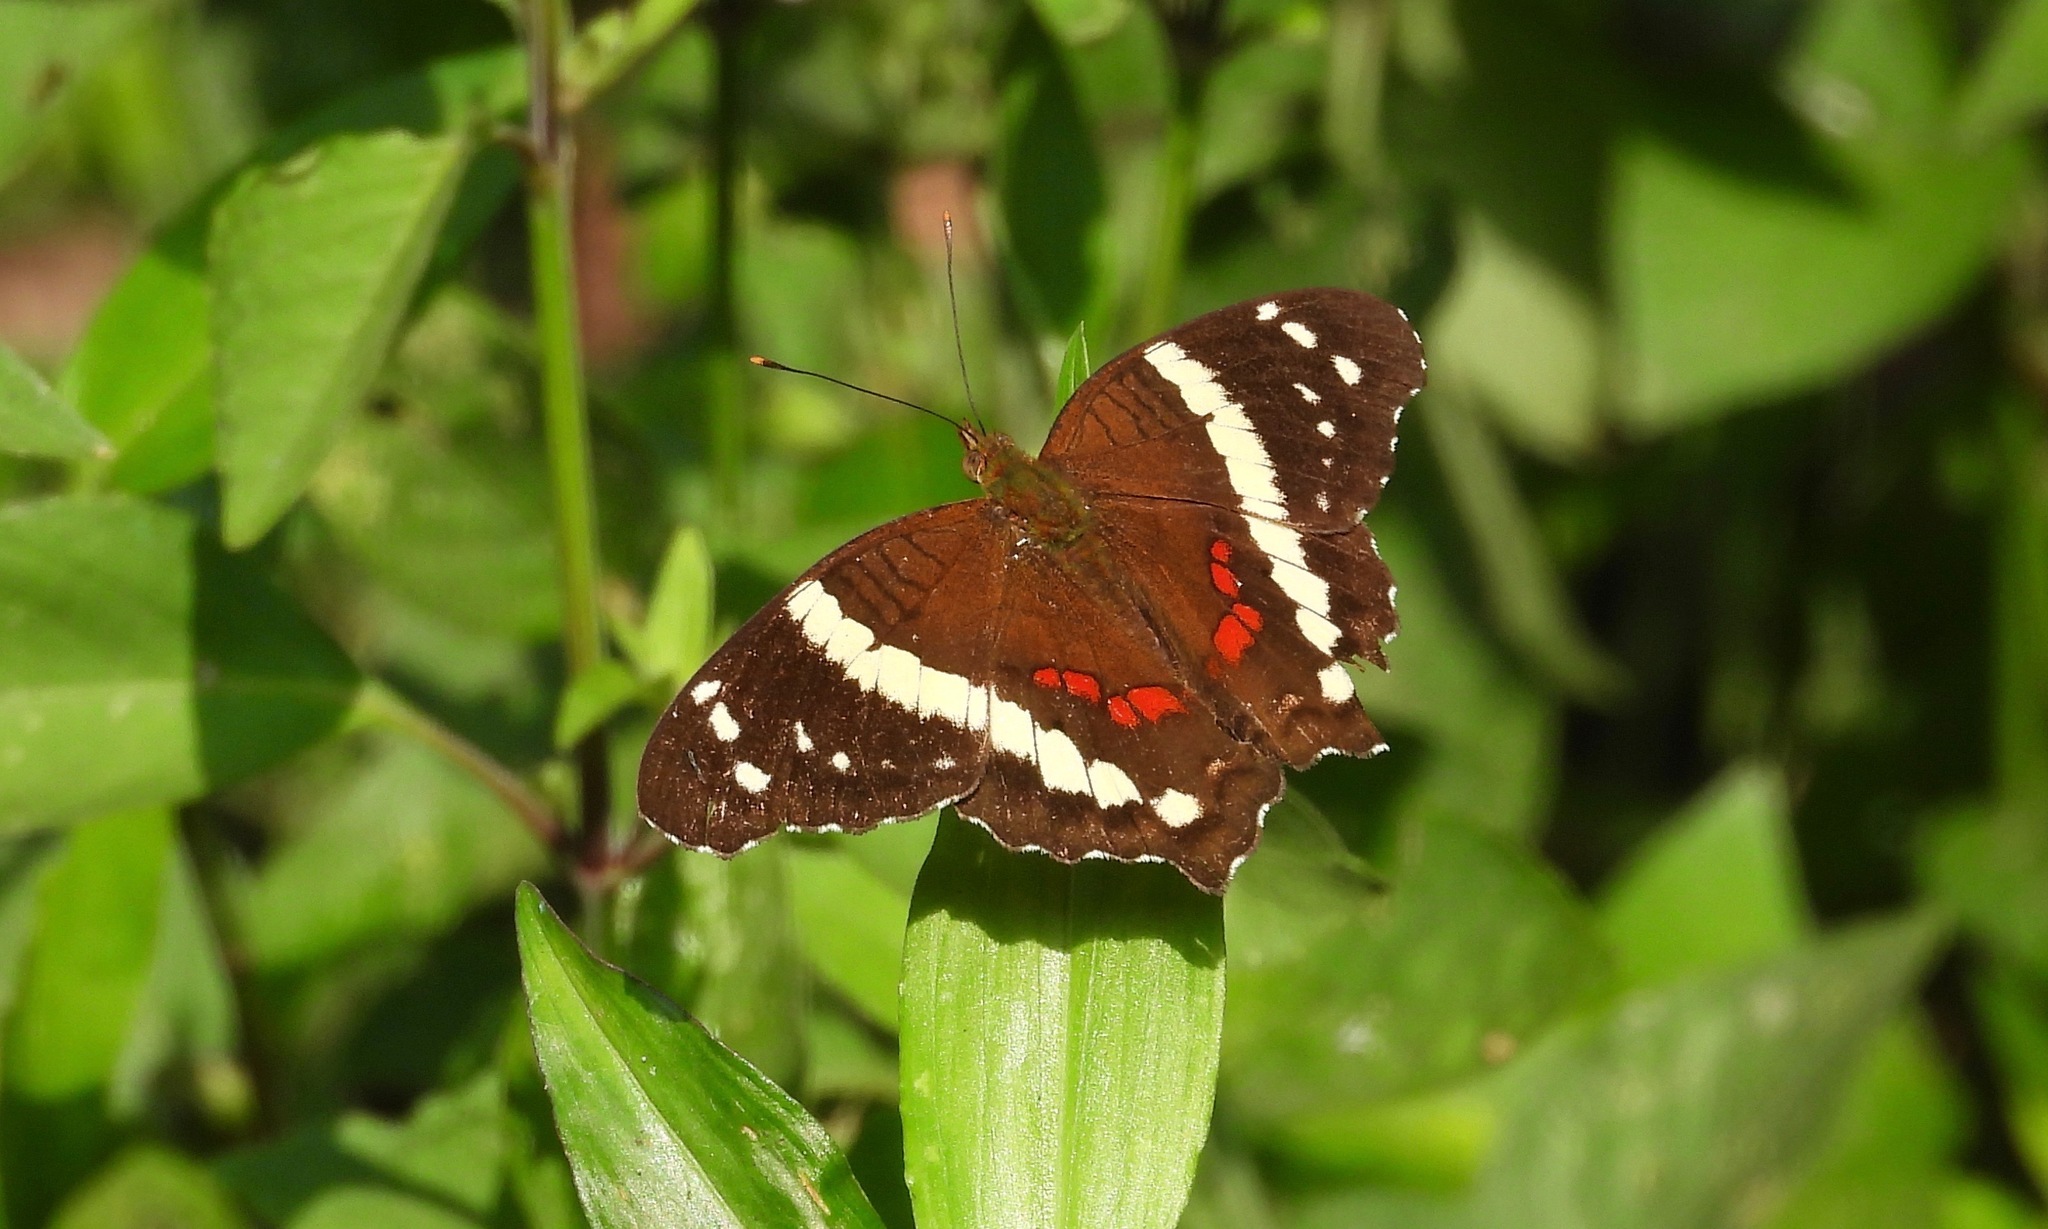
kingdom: Animalia
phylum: Arthropoda
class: Insecta
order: Lepidoptera
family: Nymphalidae
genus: Anartia
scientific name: Anartia fatima
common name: Banded peacock
